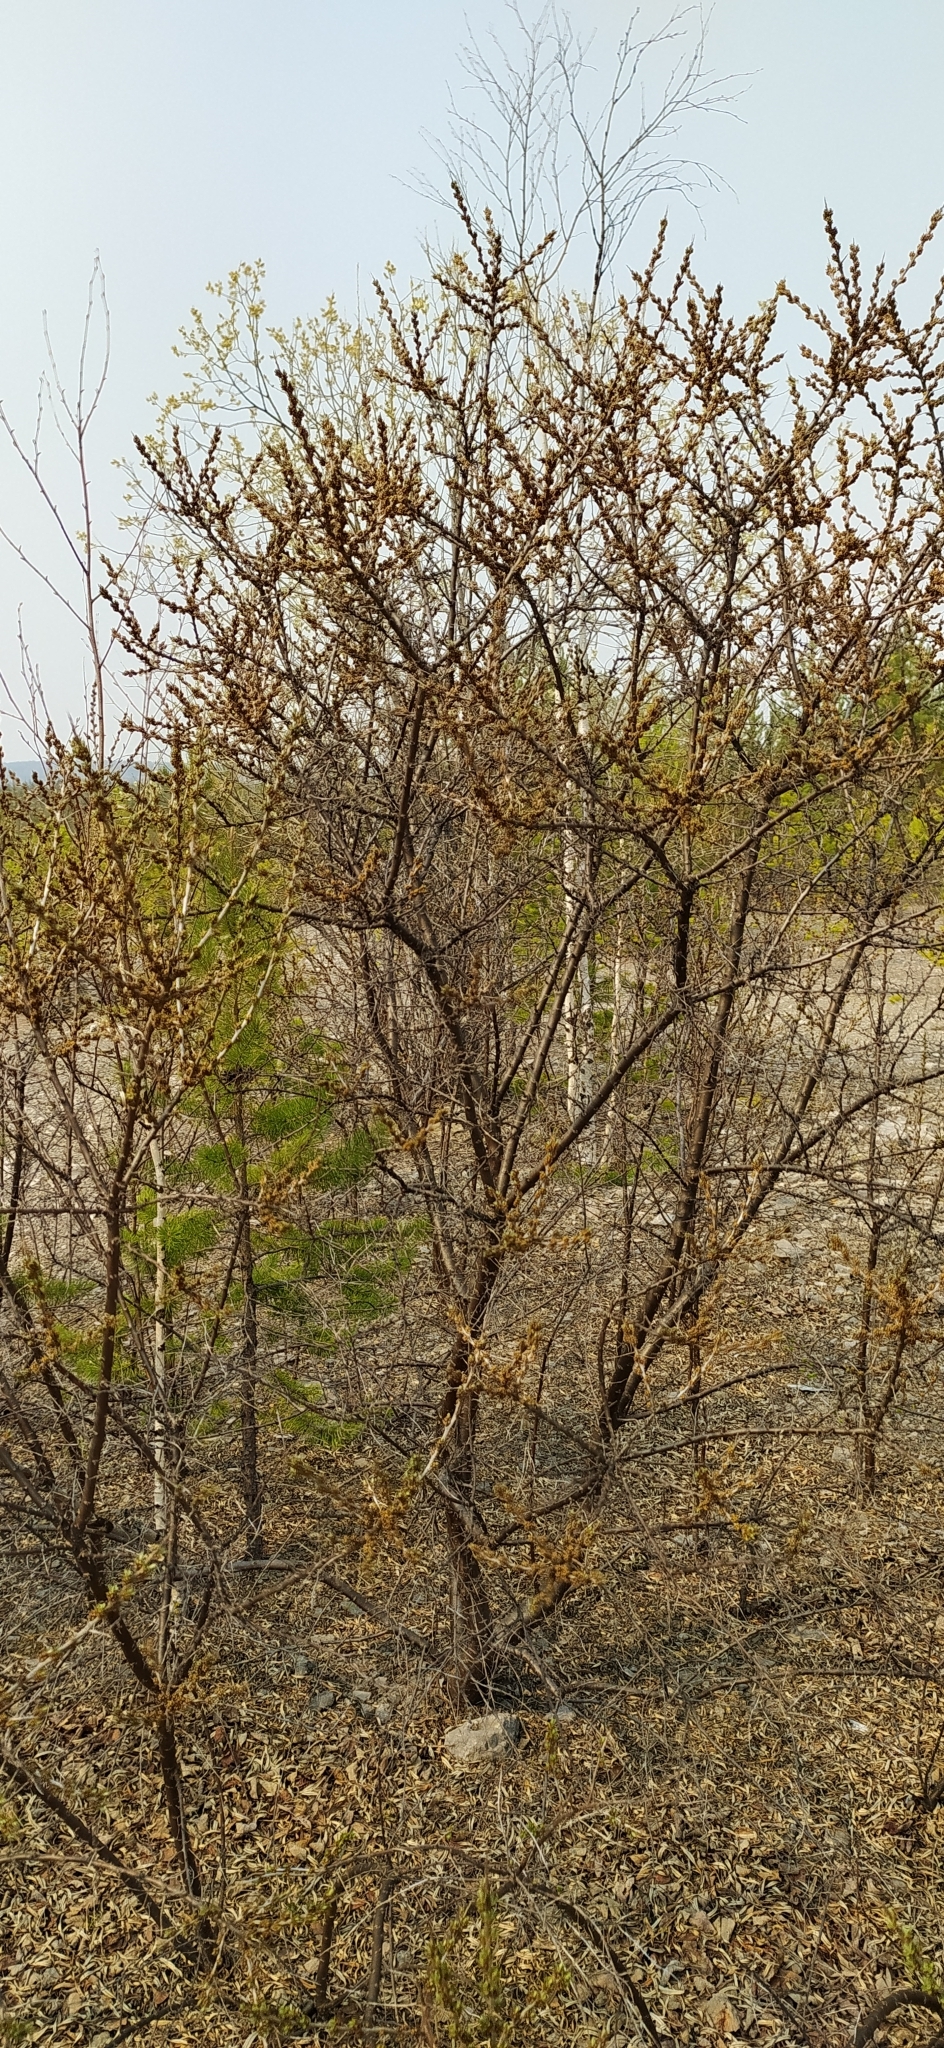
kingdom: Plantae
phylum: Tracheophyta
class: Magnoliopsida
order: Rosales
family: Elaeagnaceae
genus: Hippophae
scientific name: Hippophae rhamnoides
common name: Sea-buckthorn
